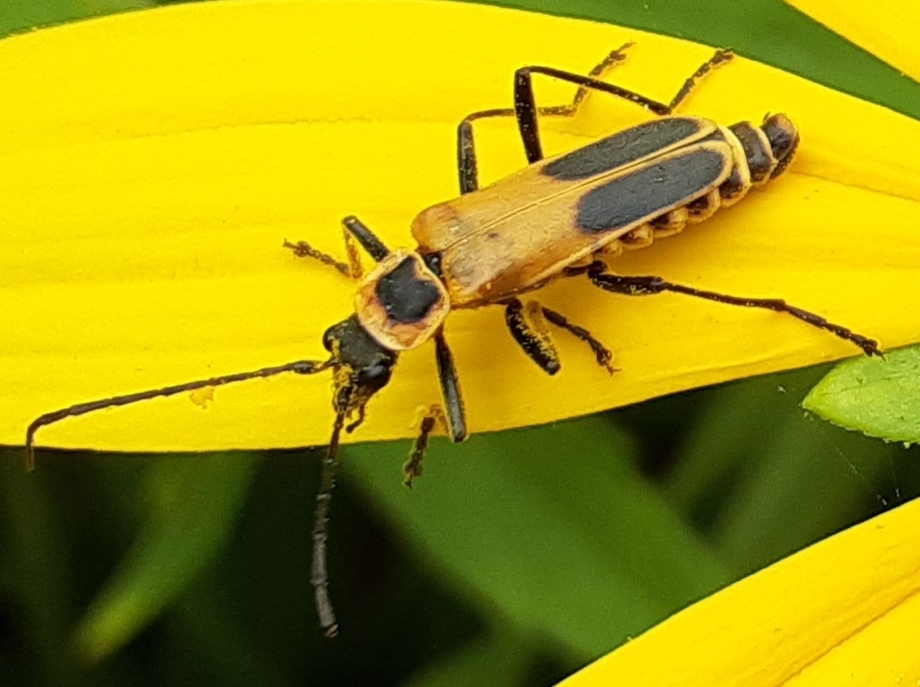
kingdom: Animalia
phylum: Arthropoda
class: Insecta
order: Coleoptera
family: Cantharidae
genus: Chauliognathus
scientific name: Chauliognathus pensylvanicus
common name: Goldenrod soldier beetle
